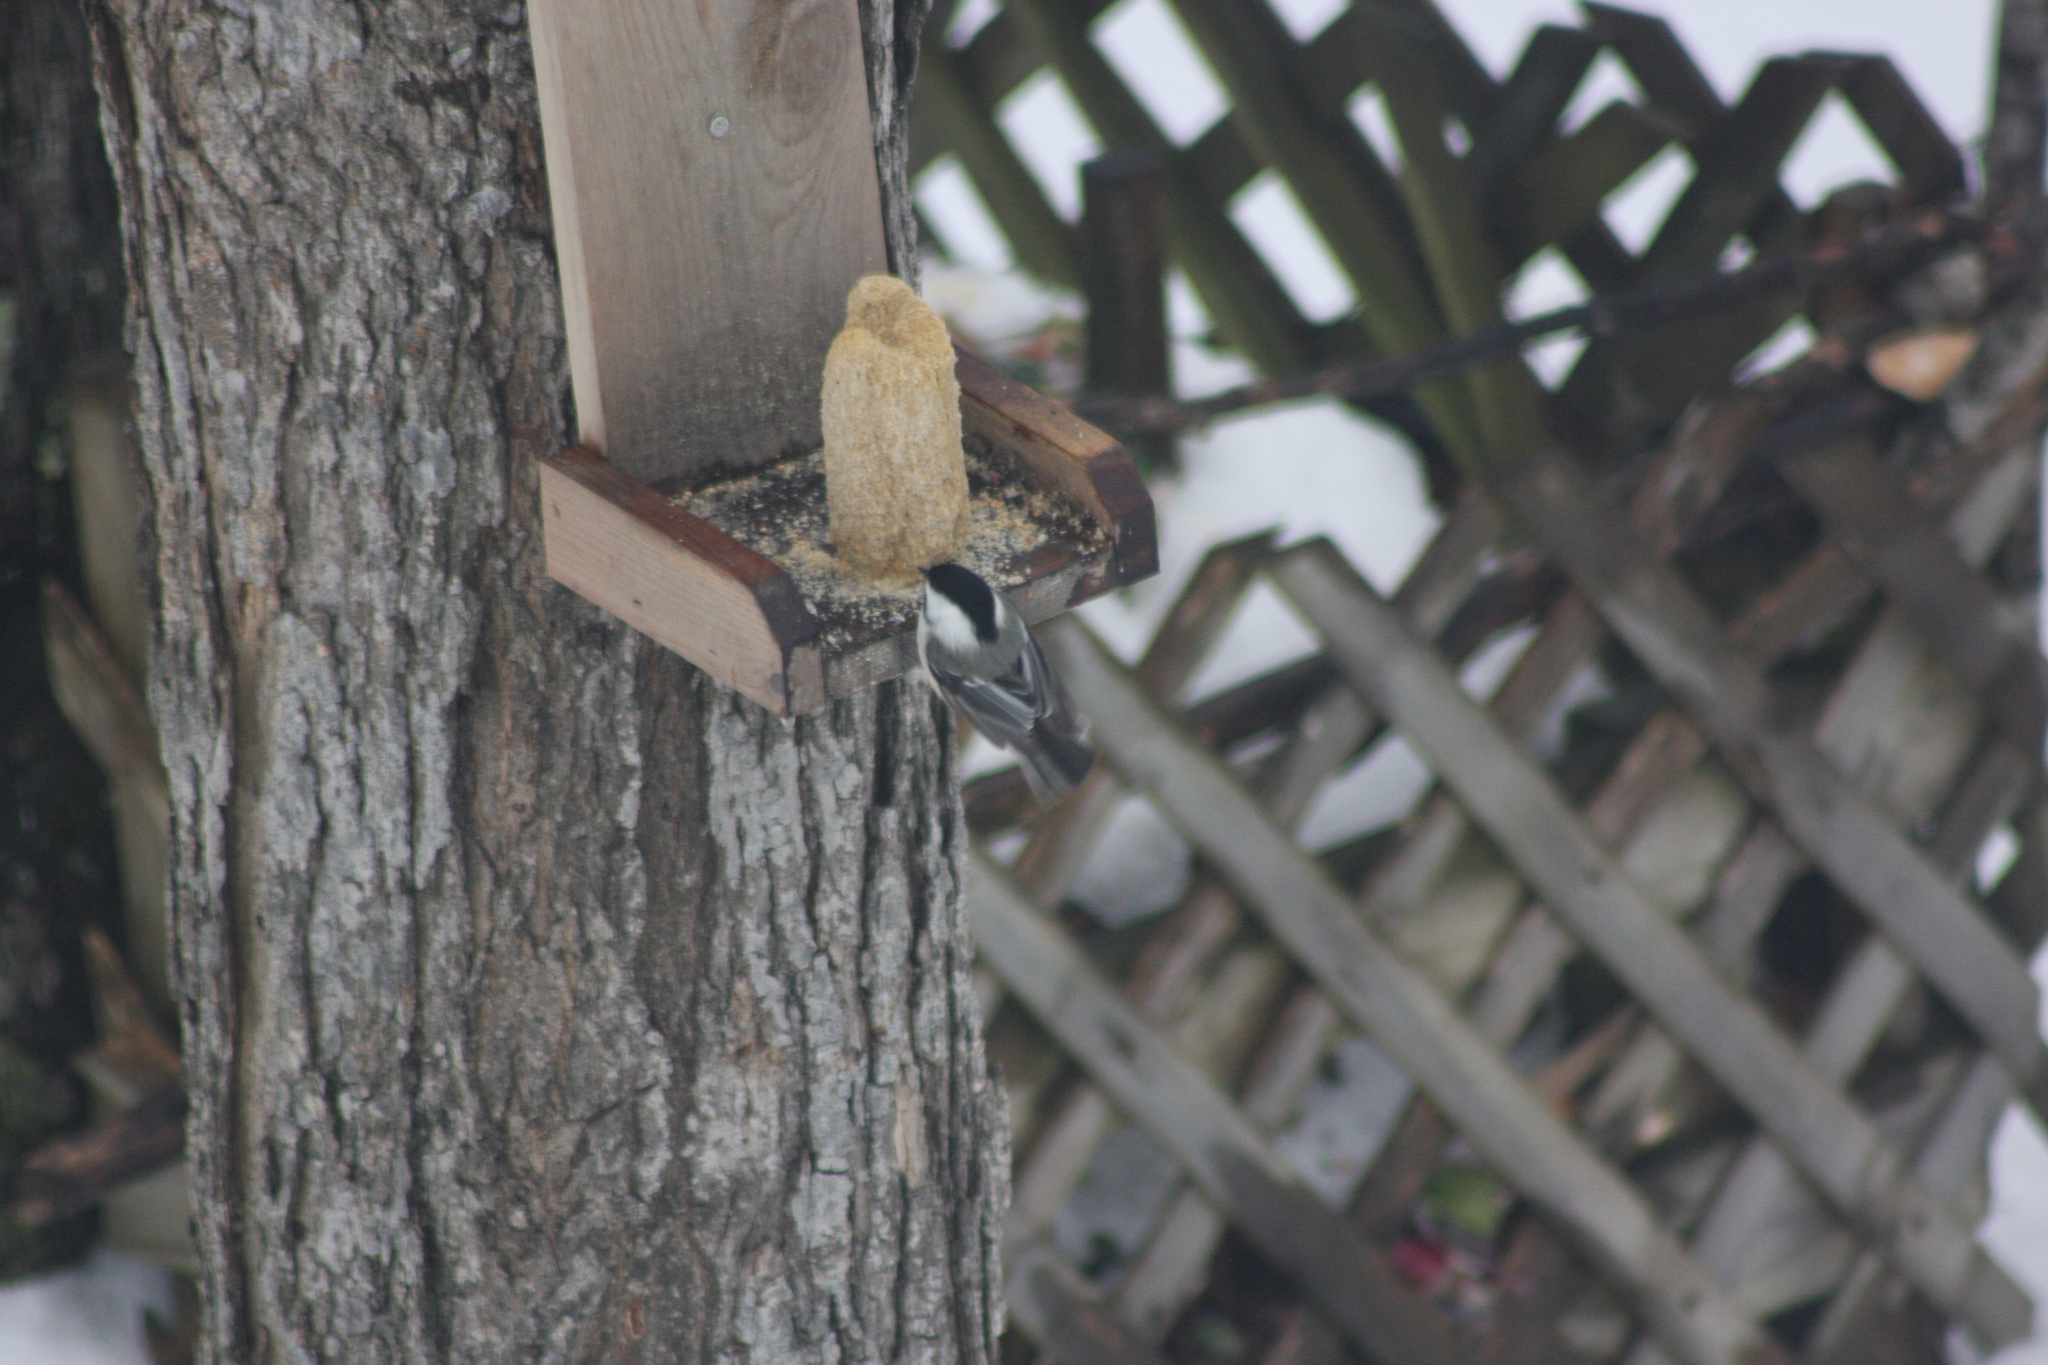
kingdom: Animalia
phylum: Chordata
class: Aves
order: Passeriformes
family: Paridae
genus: Poecile
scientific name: Poecile atricapillus
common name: Black-capped chickadee
